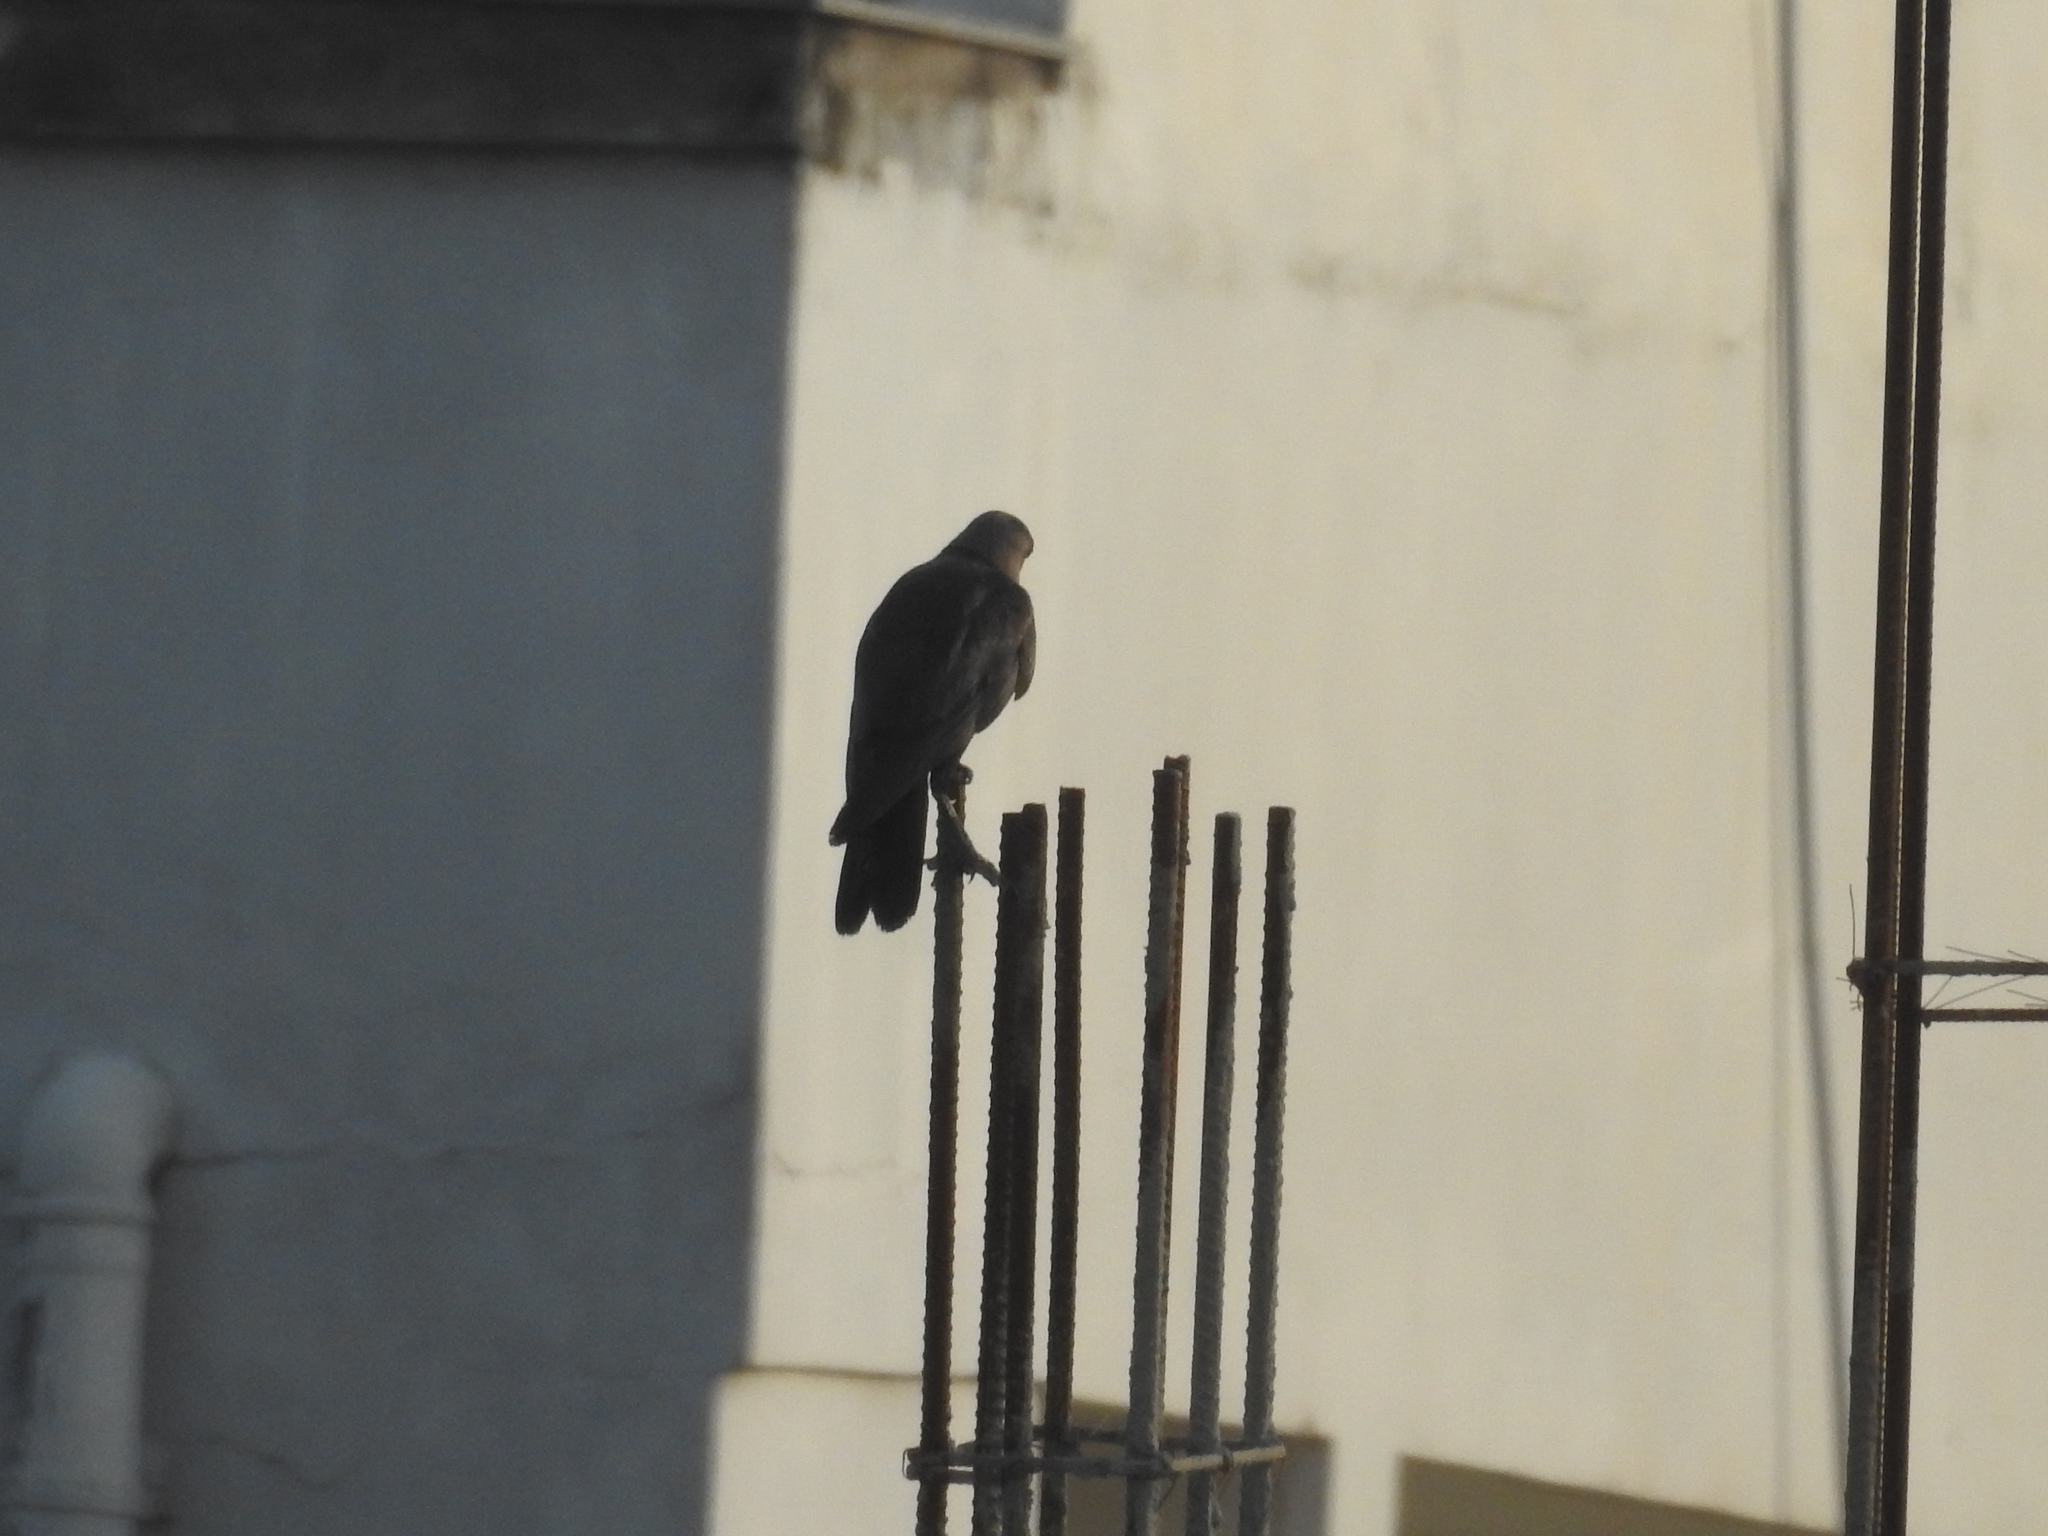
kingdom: Animalia
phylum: Chordata
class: Aves
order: Passeriformes
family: Corvidae
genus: Corvus
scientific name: Corvus splendens
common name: House crow
